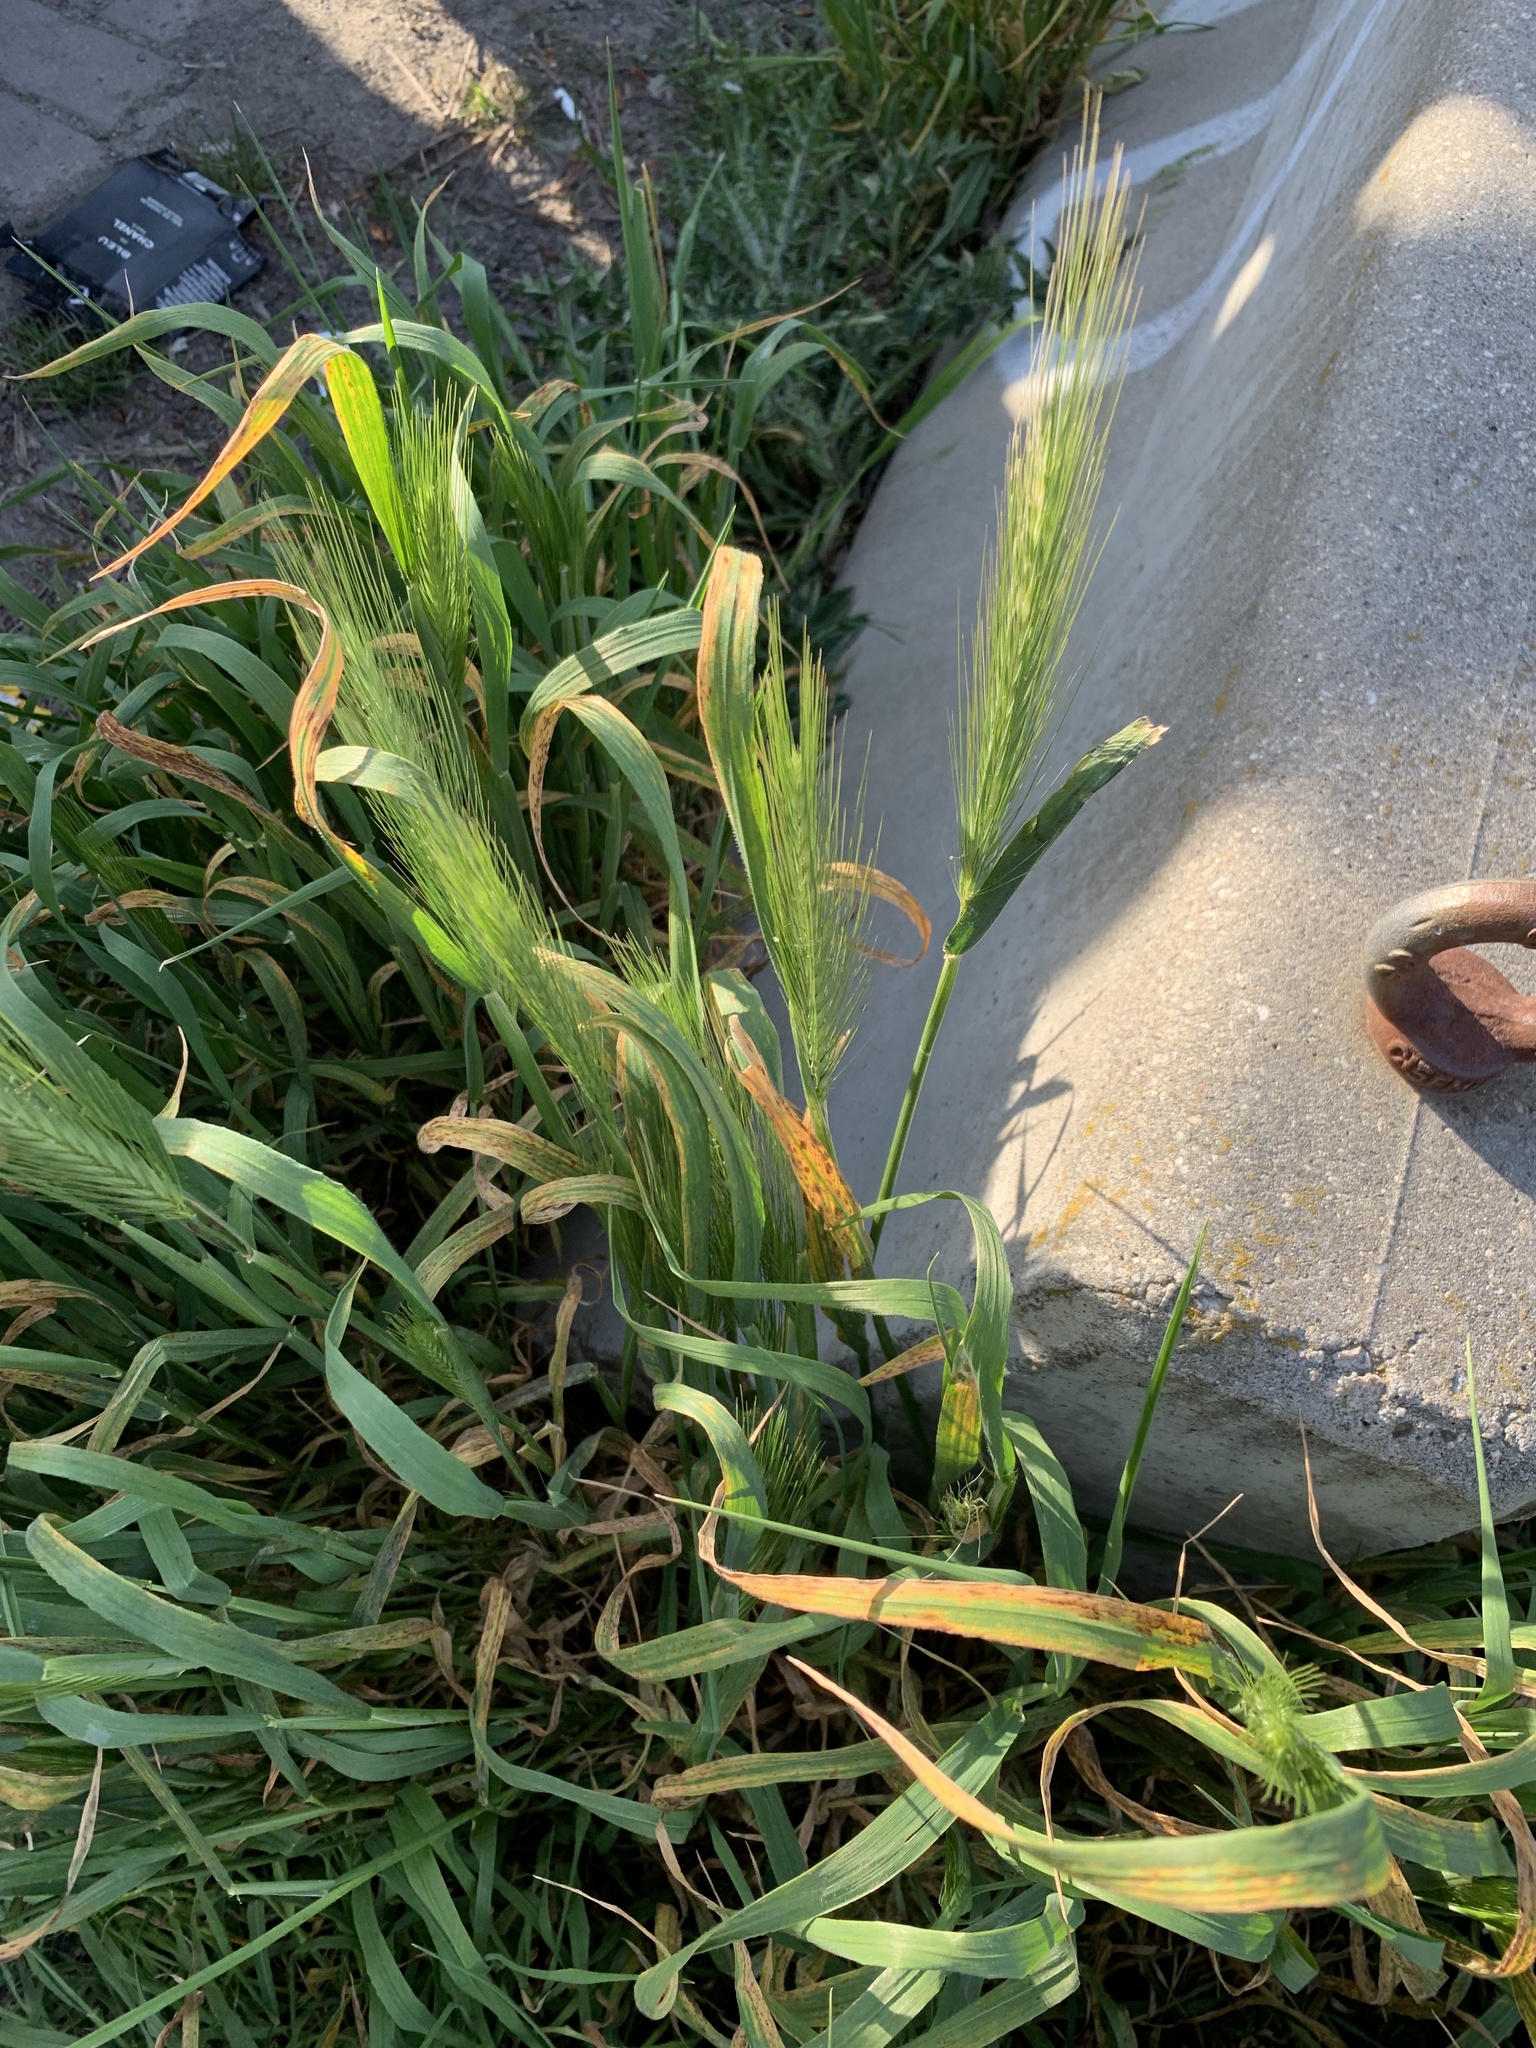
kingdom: Plantae
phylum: Tracheophyta
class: Liliopsida
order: Poales
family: Poaceae
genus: Hordeum
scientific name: Hordeum murinum
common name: Wall barley
